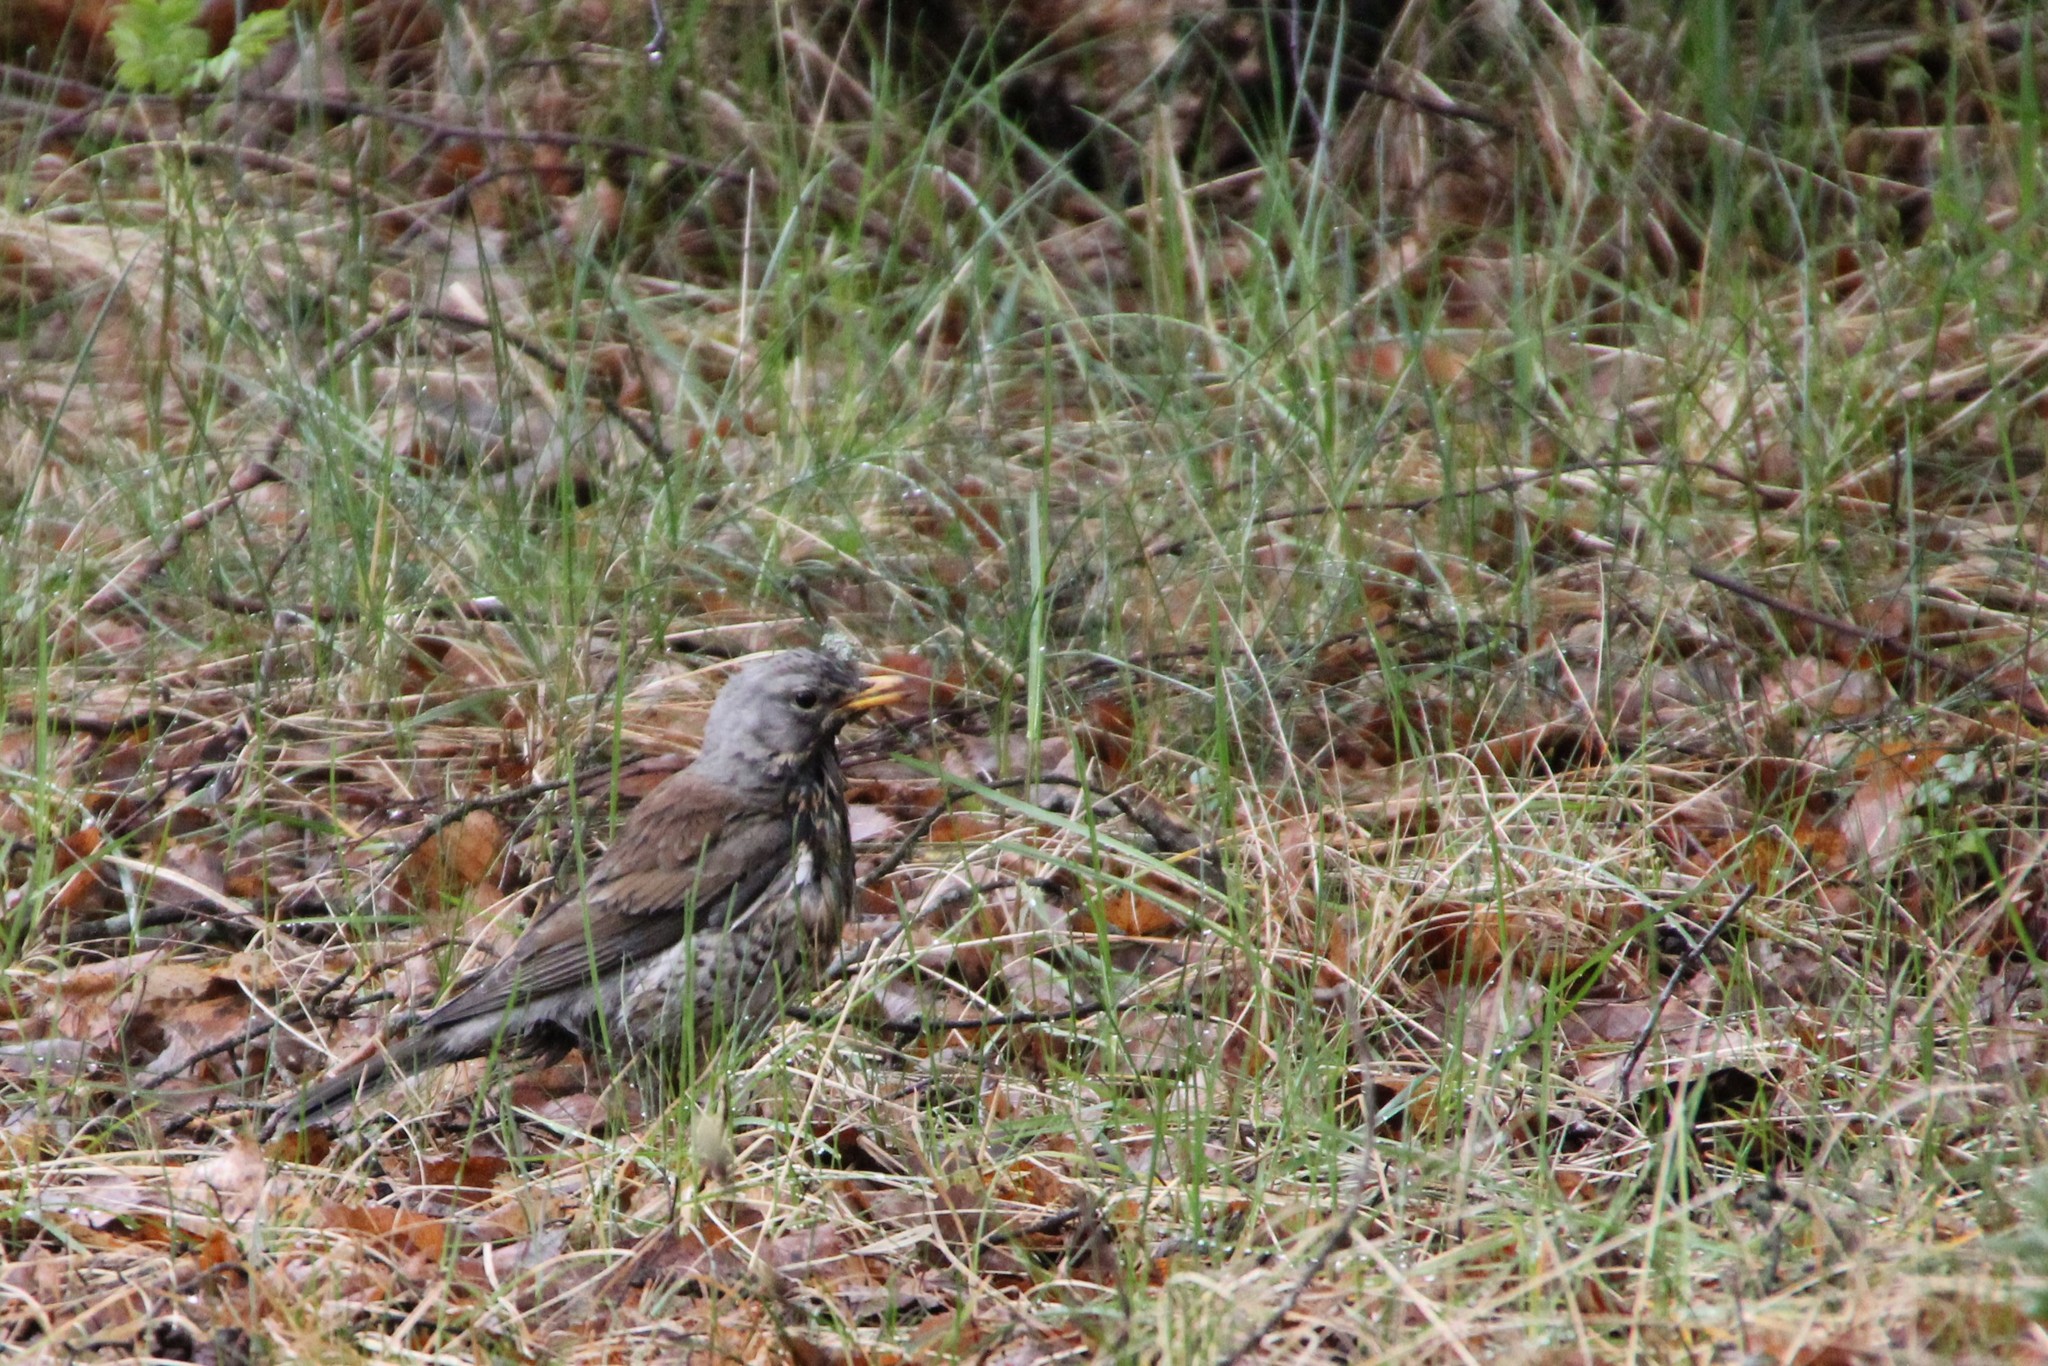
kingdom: Animalia
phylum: Chordata
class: Aves
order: Passeriformes
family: Turdidae
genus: Turdus
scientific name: Turdus pilaris
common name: Fieldfare
